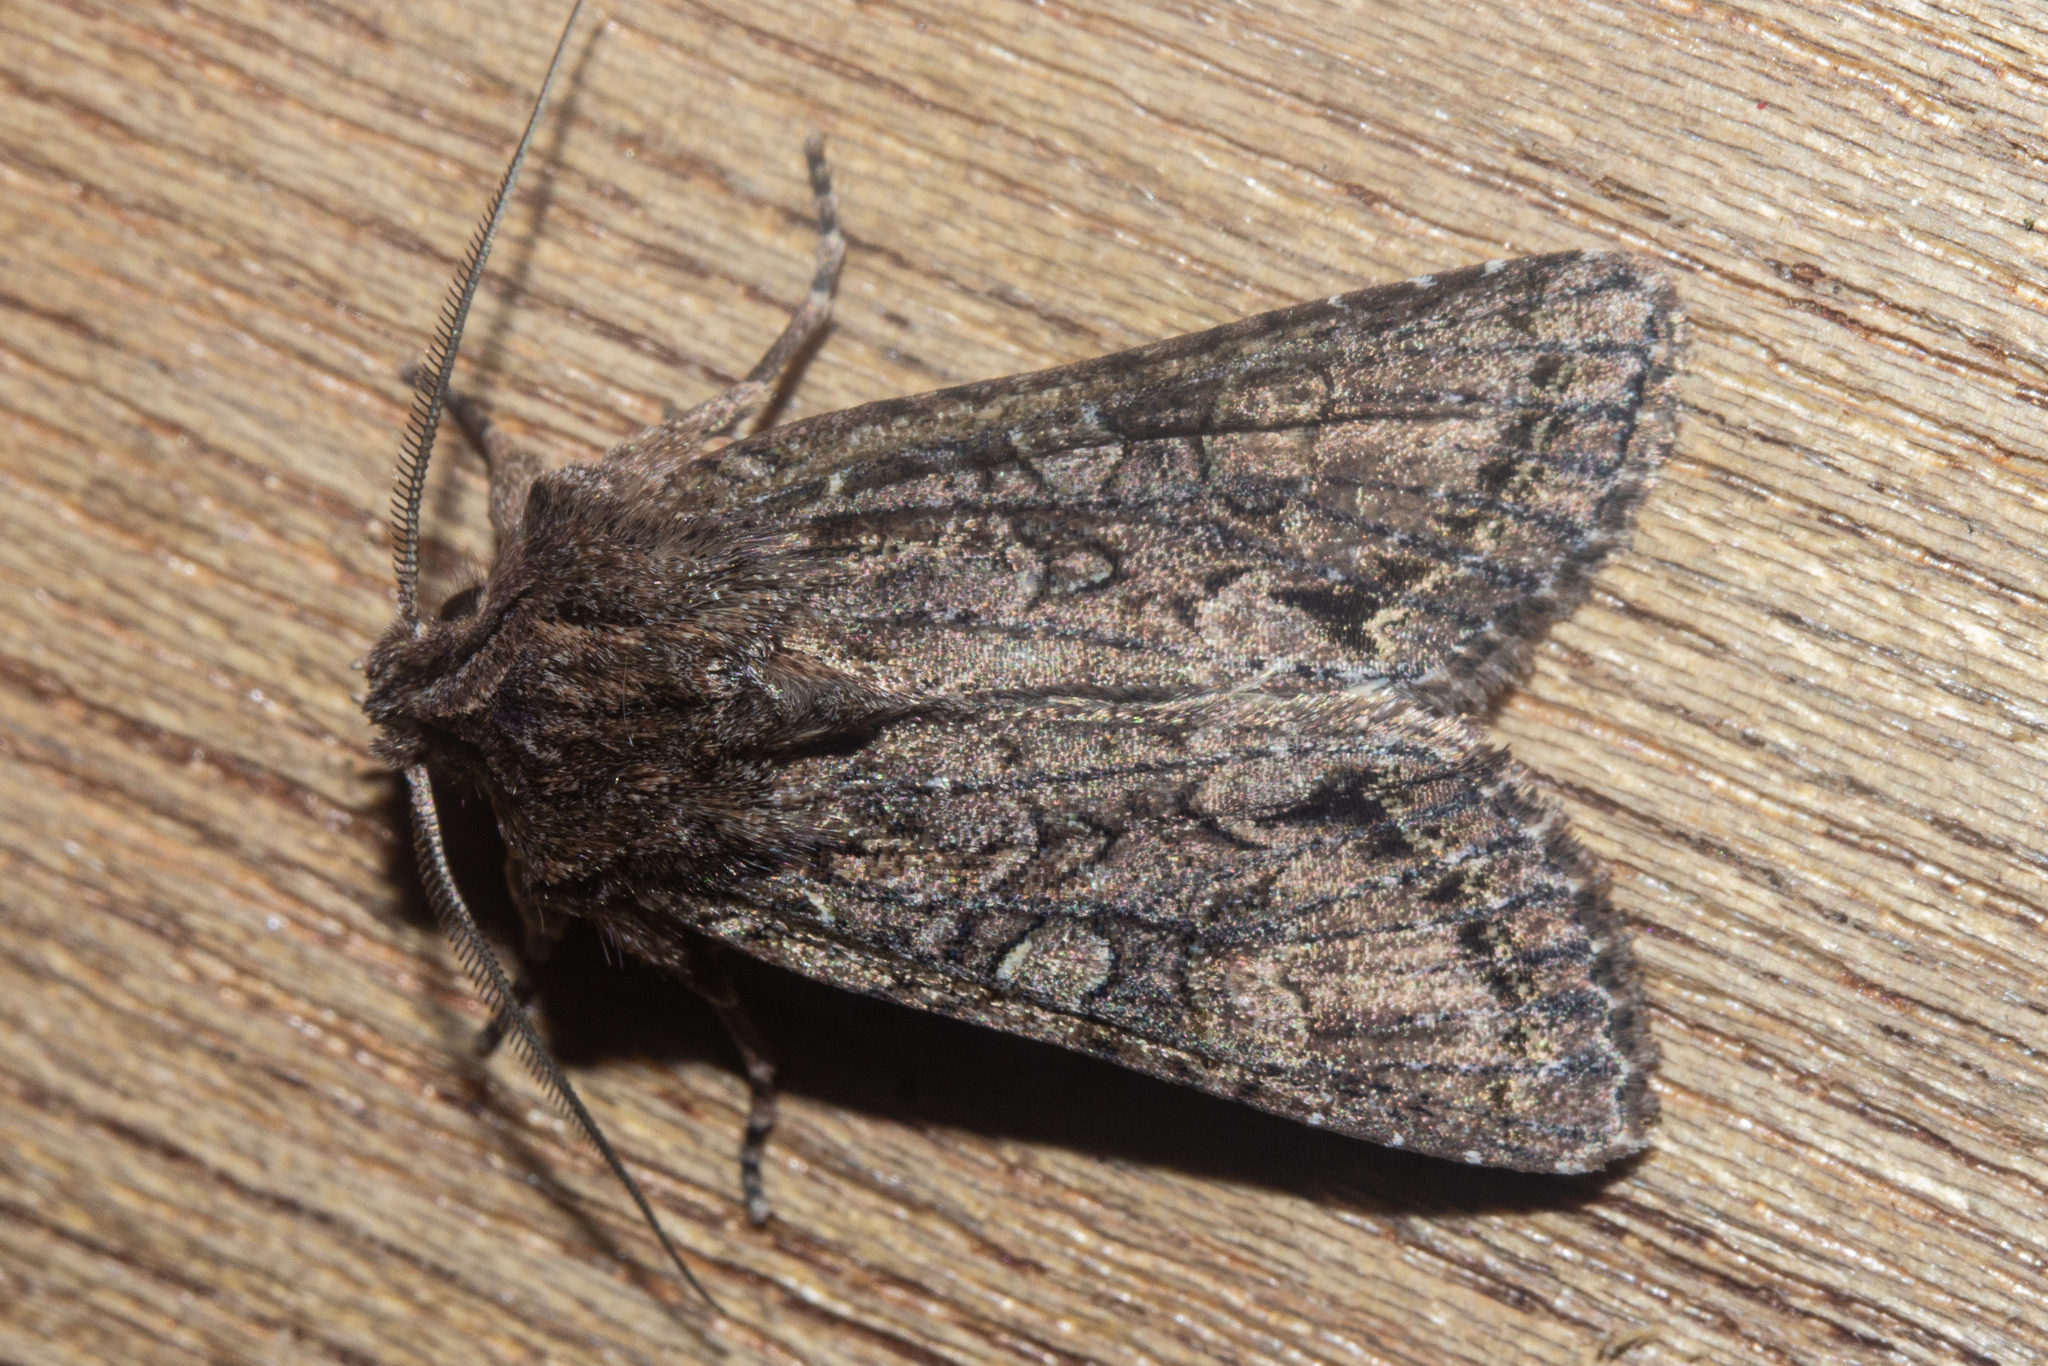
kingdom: Animalia
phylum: Arthropoda
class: Insecta
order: Lepidoptera
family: Noctuidae
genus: Ichneutica
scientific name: Ichneutica mutans
